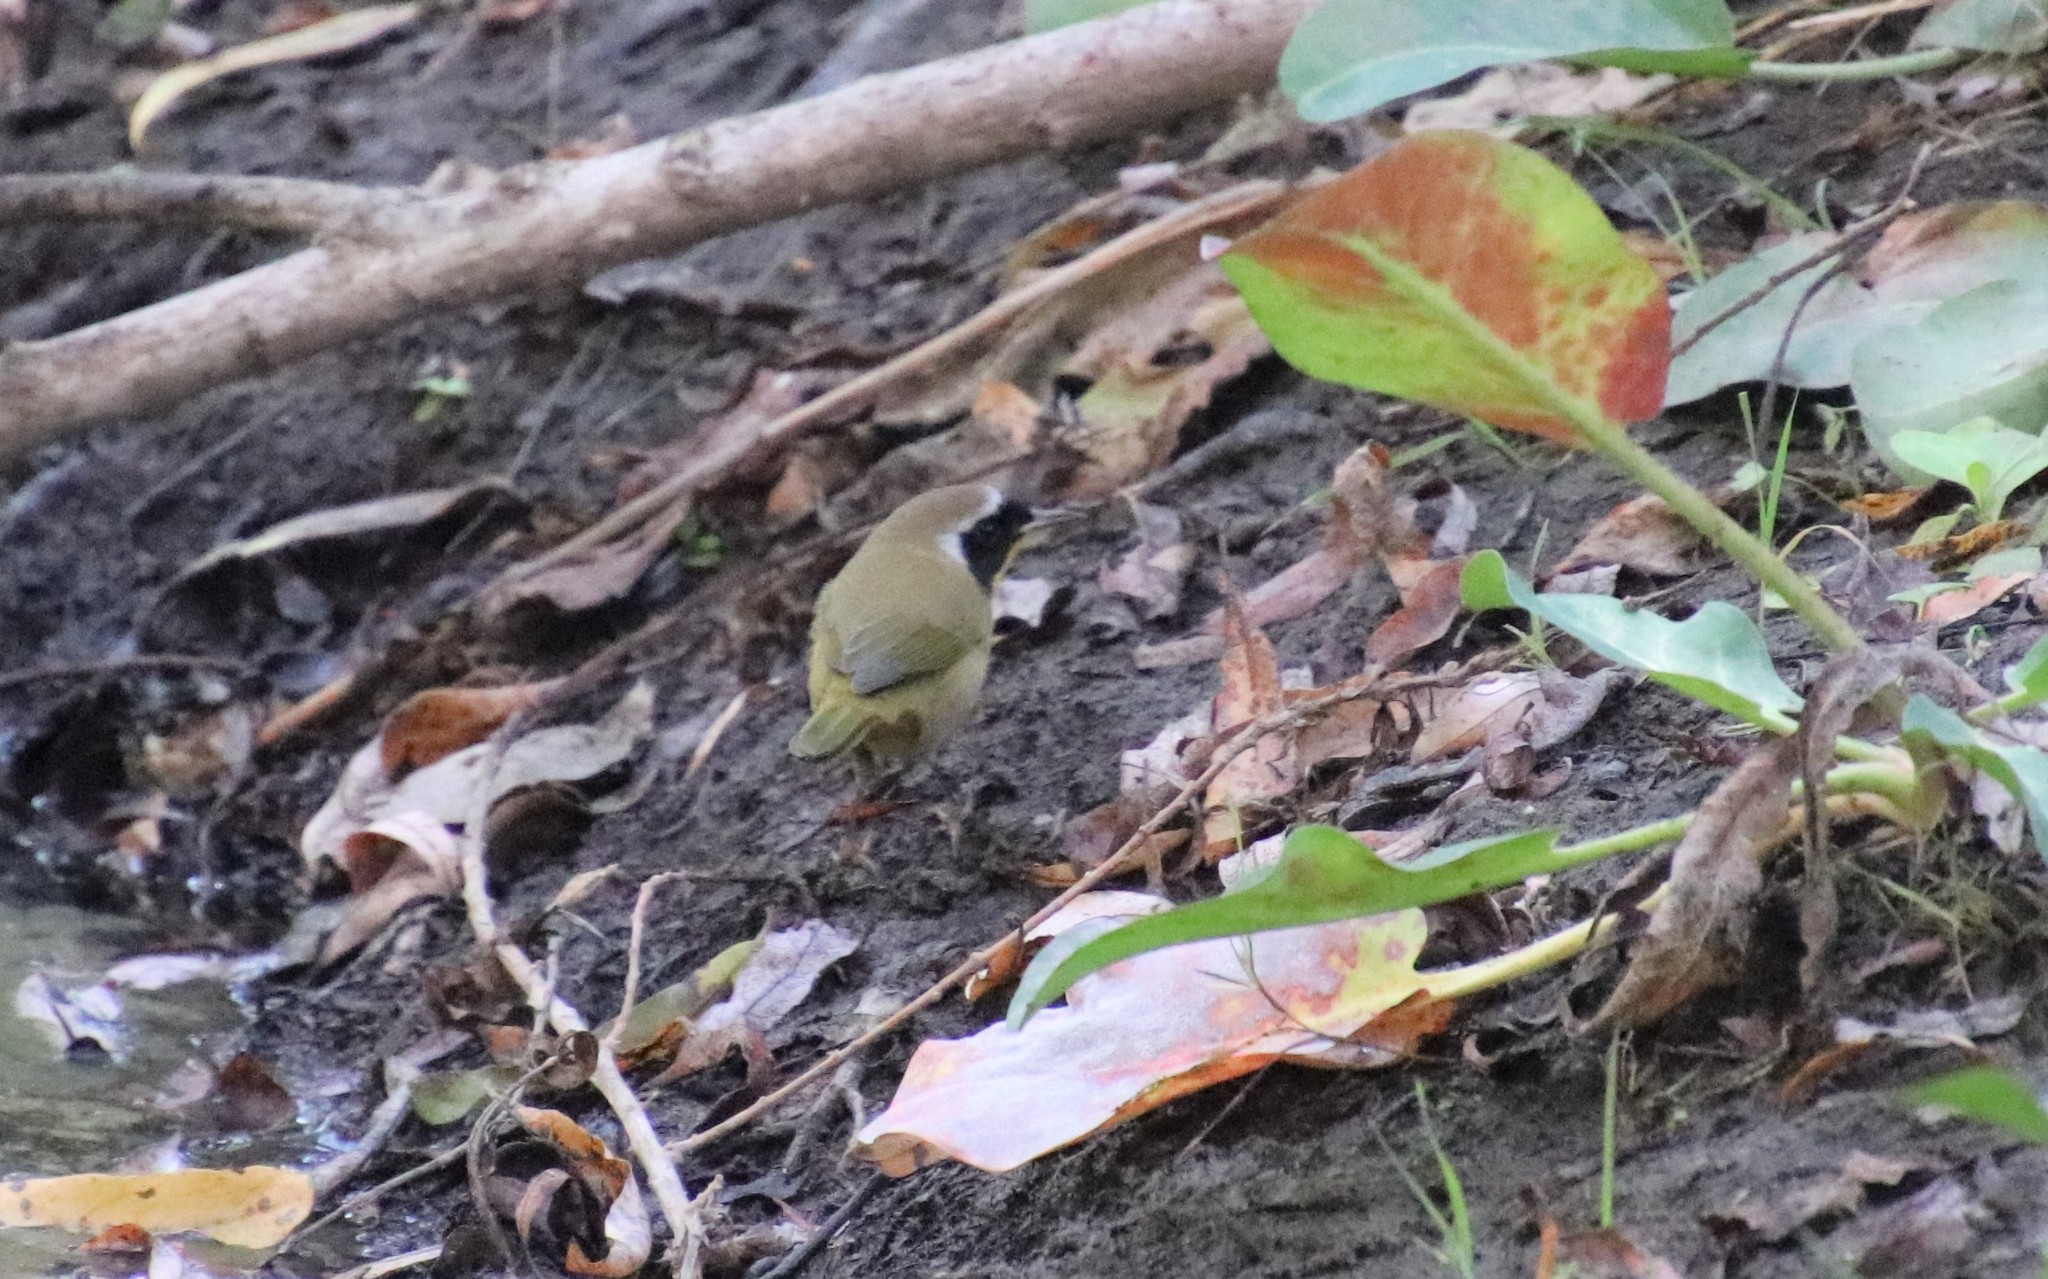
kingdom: Animalia
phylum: Chordata
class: Aves
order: Passeriformes
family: Parulidae
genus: Geothlypis
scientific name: Geothlypis trichas
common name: Common yellowthroat
